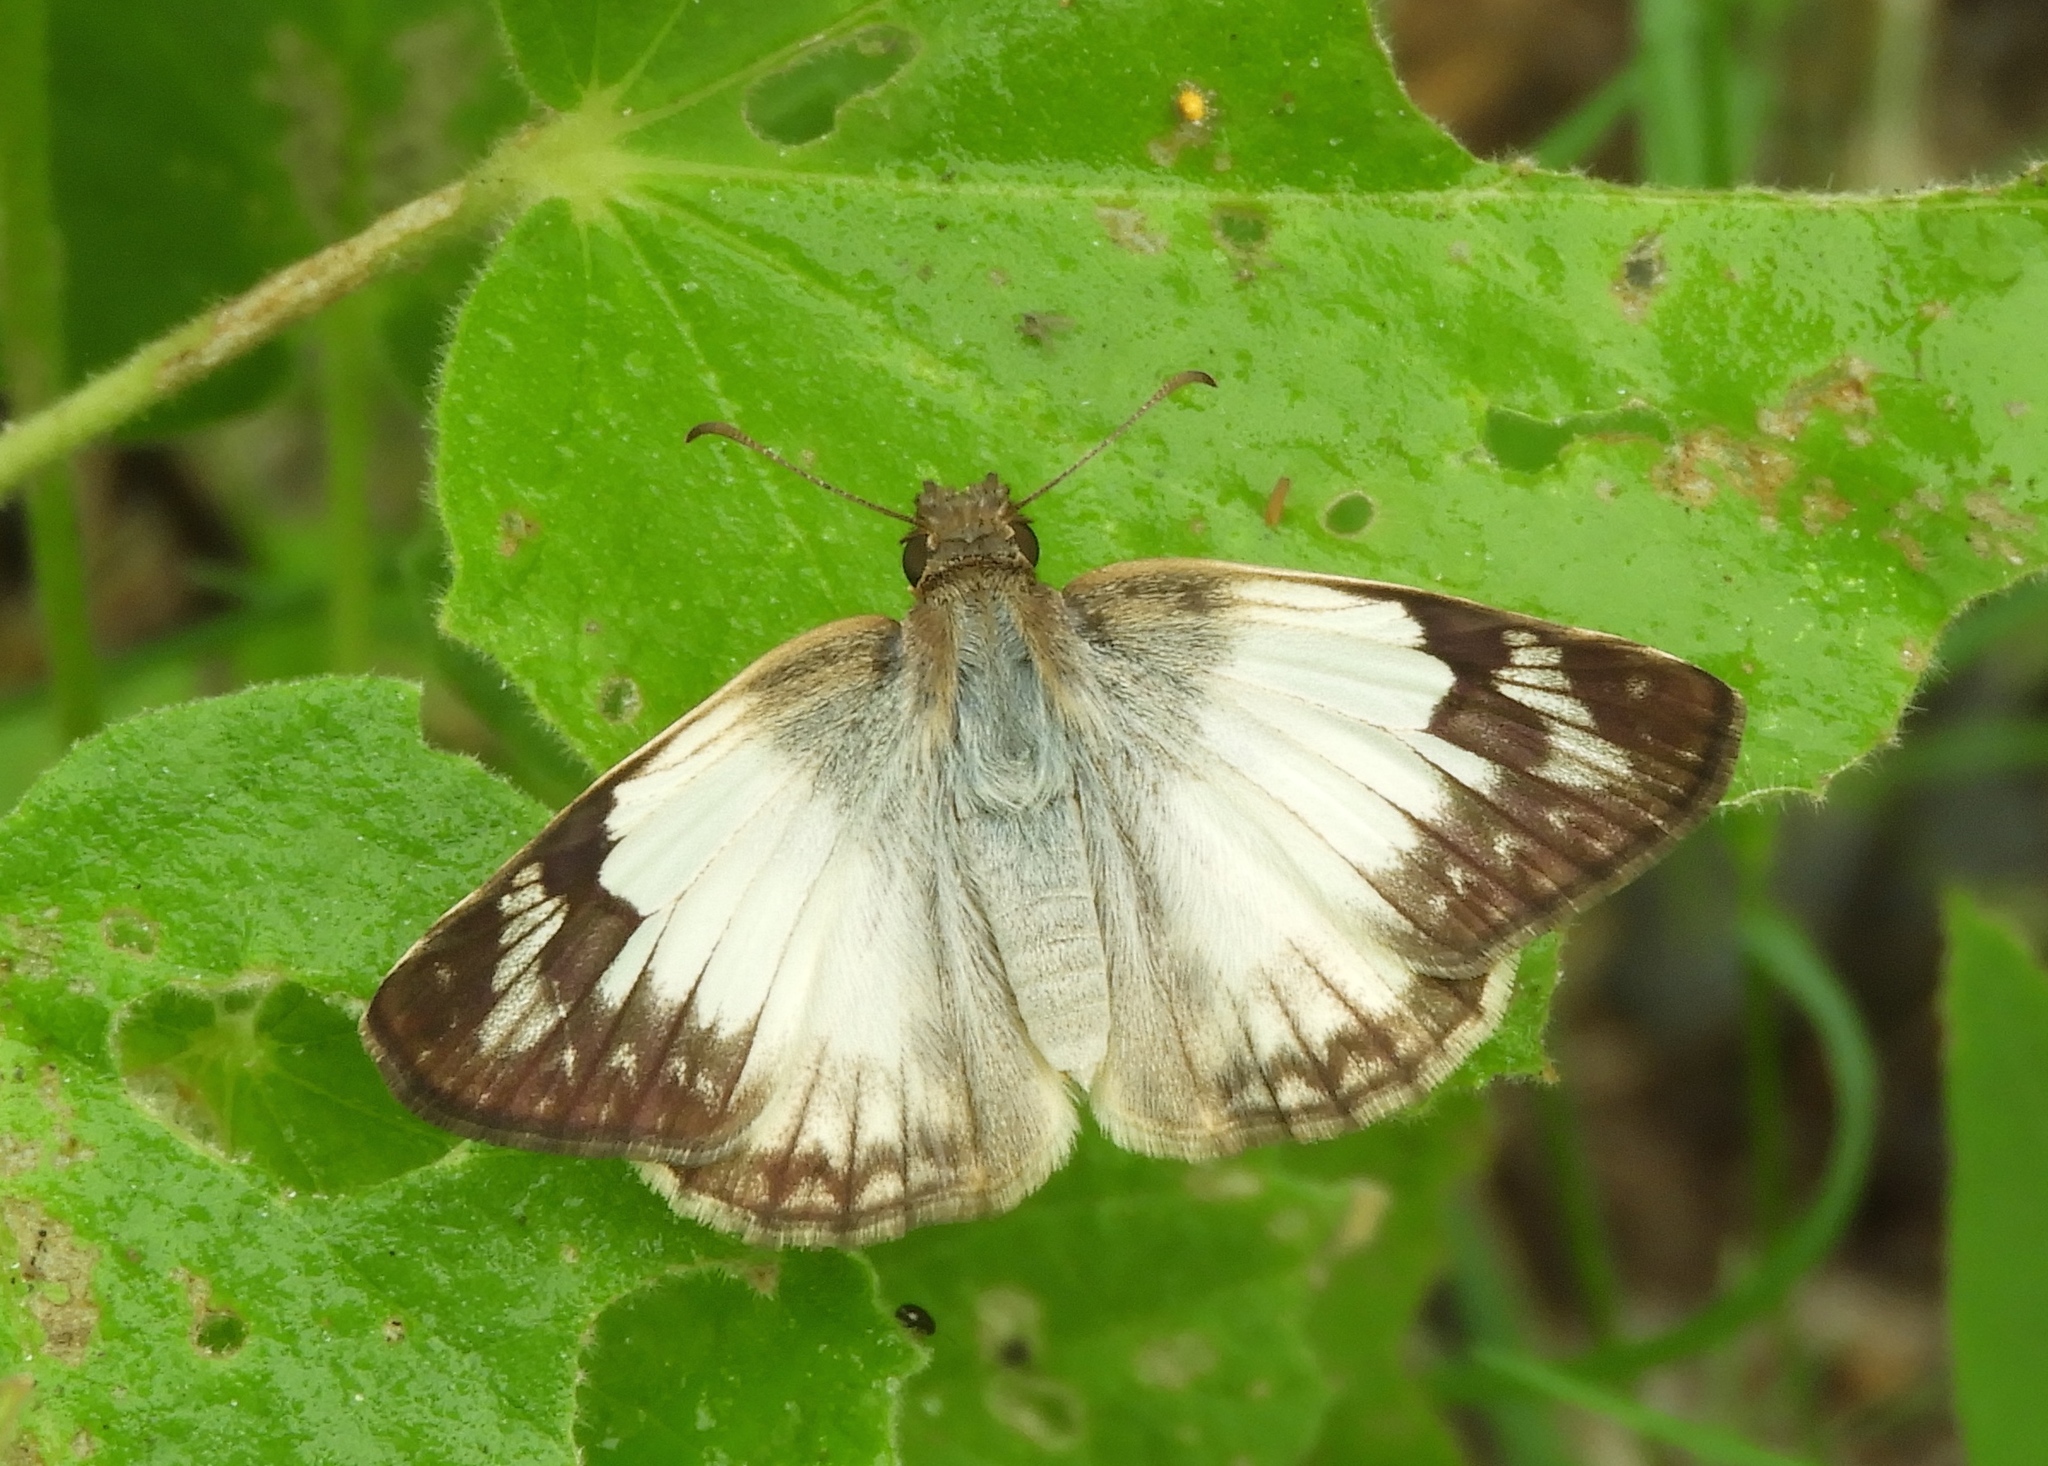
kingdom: Animalia
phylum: Arthropoda
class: Insecta
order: Lepidoptera
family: Hesperiidae
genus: Heliopetes
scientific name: Heliopetes
